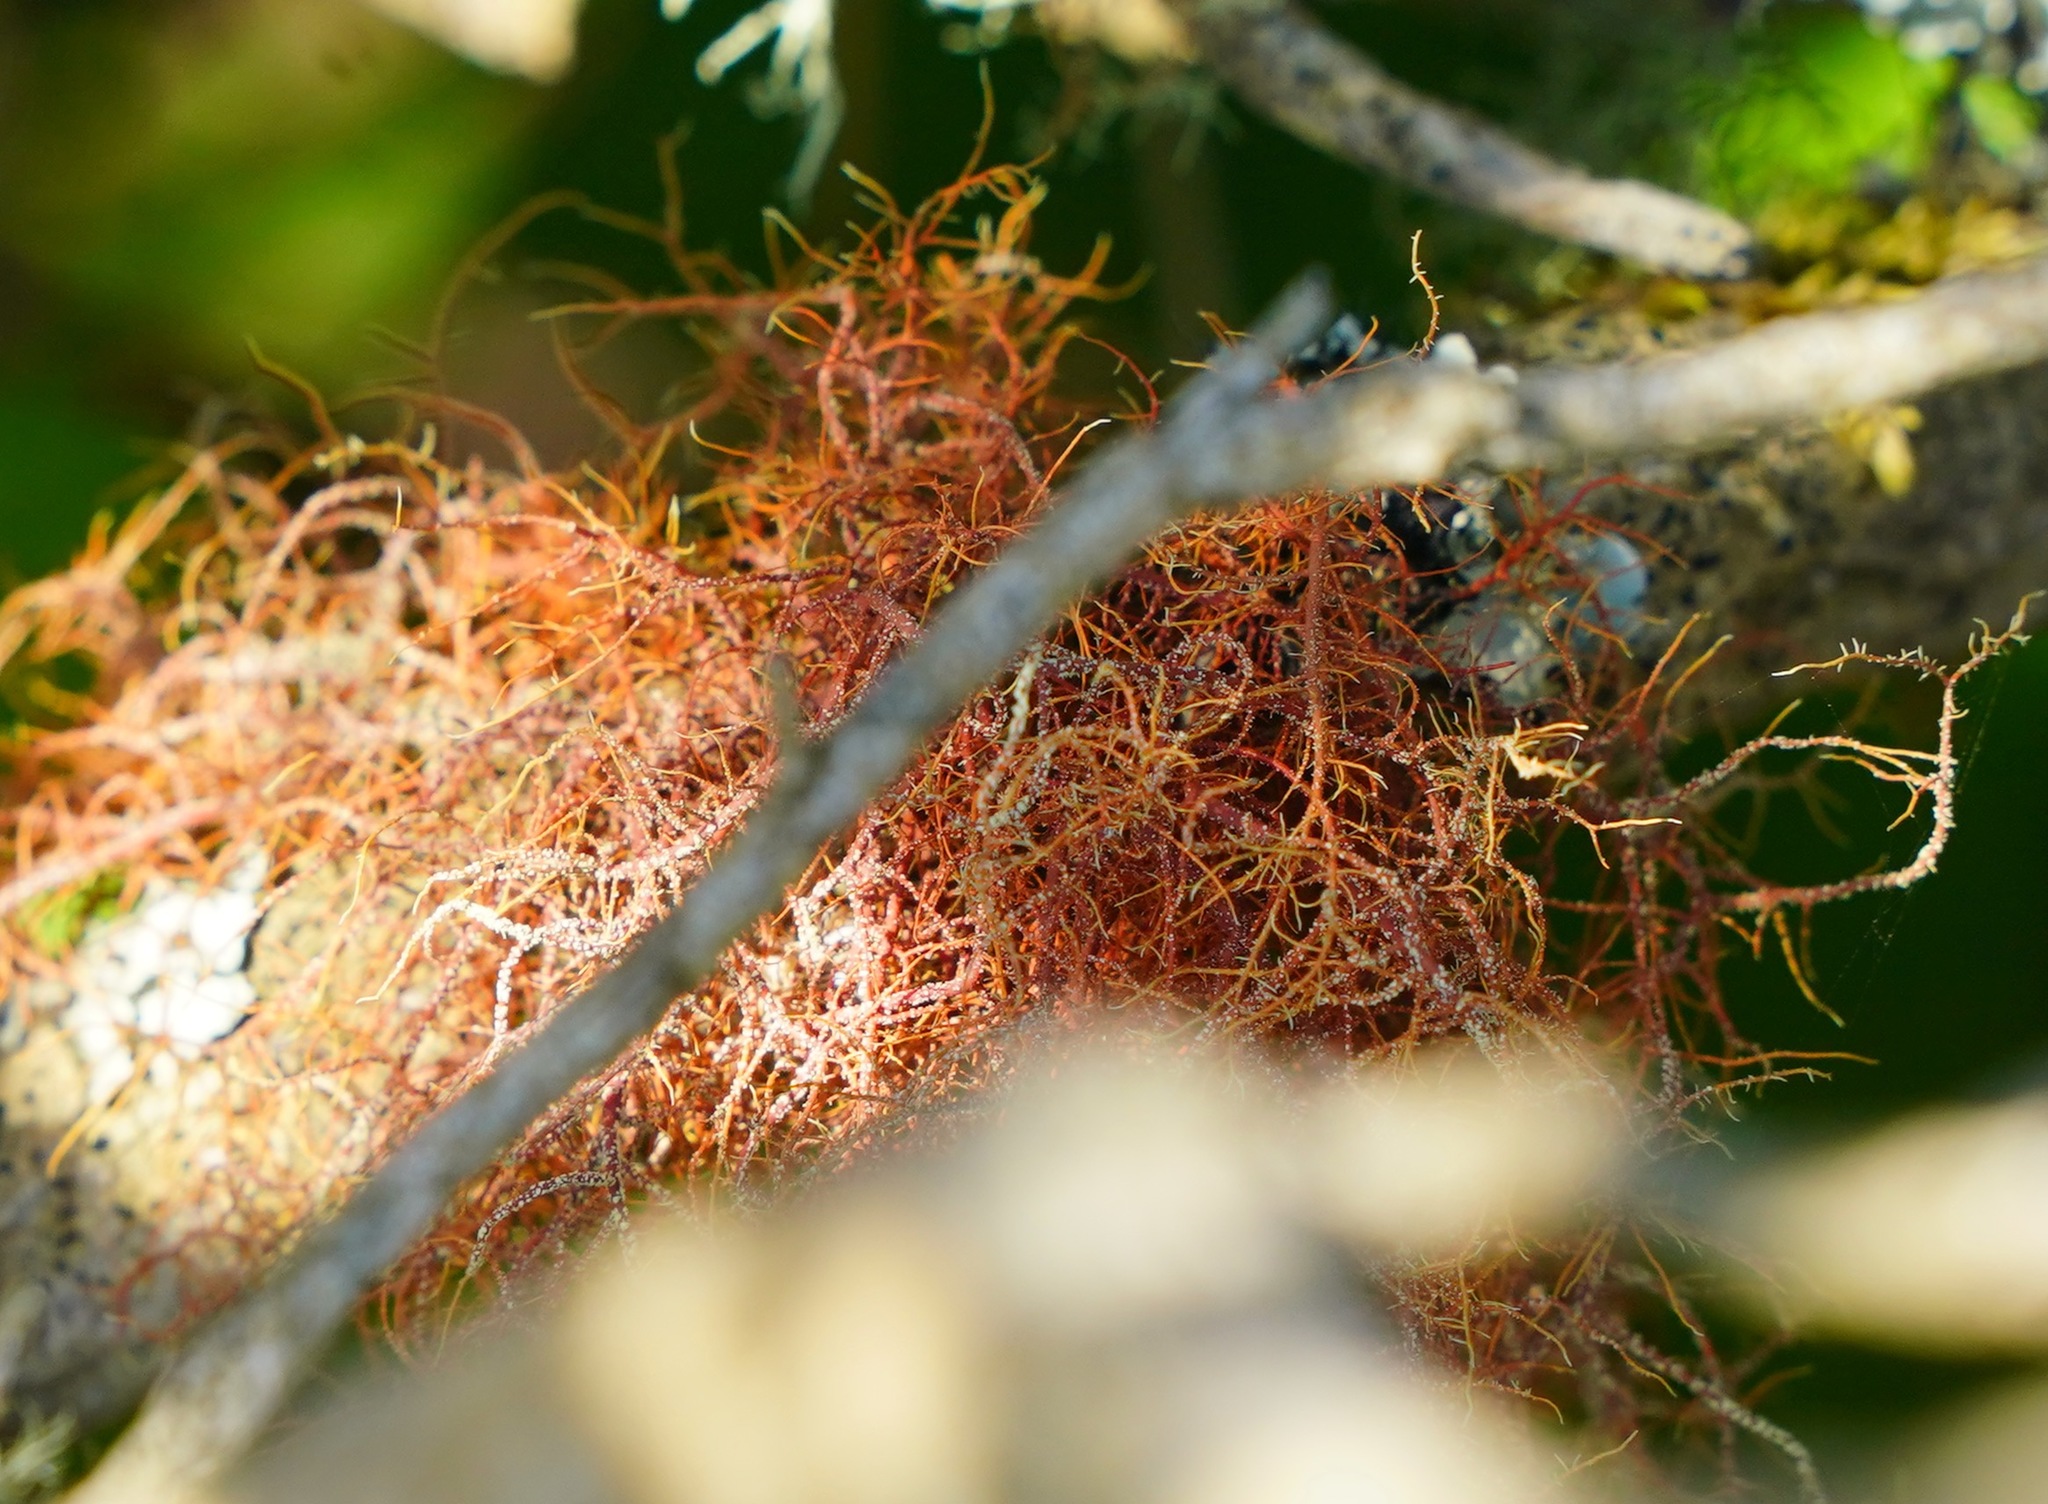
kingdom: Fungi
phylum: Ascomycota
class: Lecanoromycetes
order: Lecanorales
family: Parmeliaceae
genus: Usnea
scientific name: Usnea rubicunda
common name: Red beard lichen
